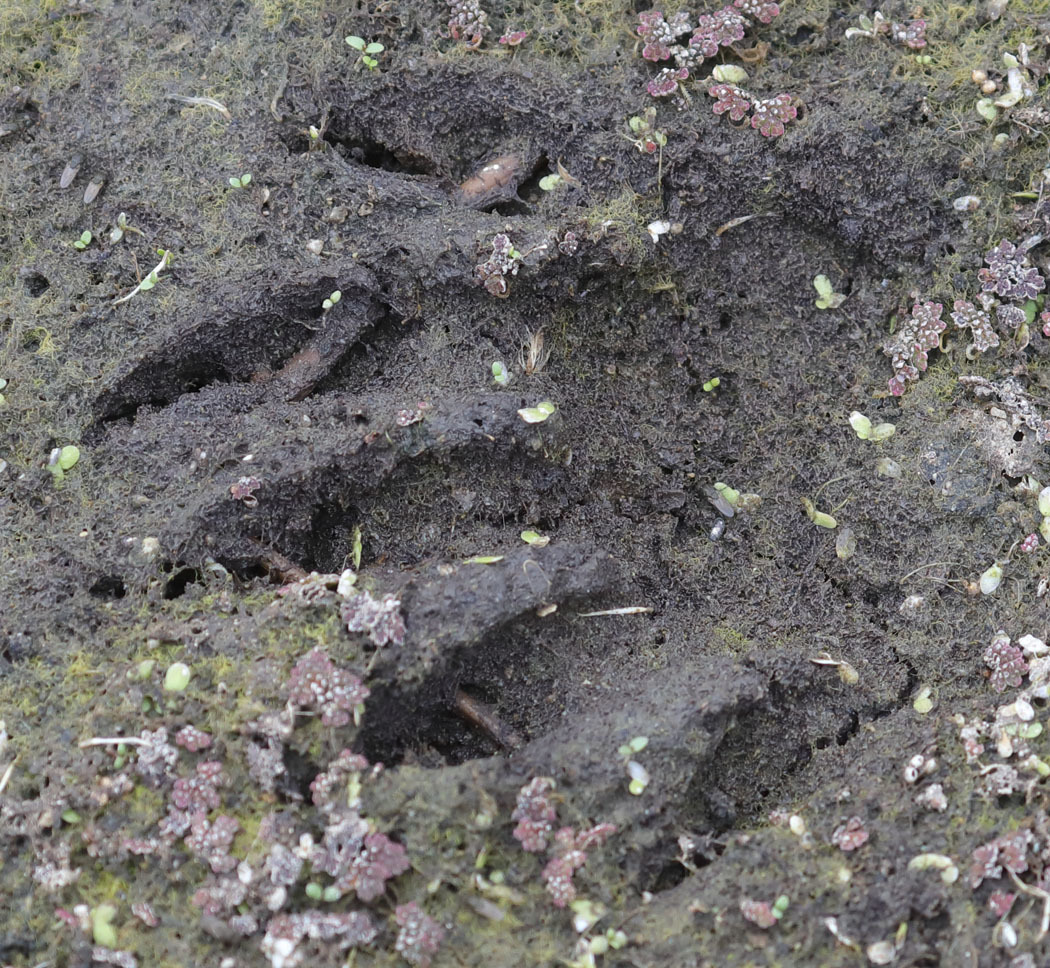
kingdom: Animalia
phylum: Chordata
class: Mammalia
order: Carnivora
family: Procyonidae
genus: Procyon
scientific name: Procyon lotor
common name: Raccoon
